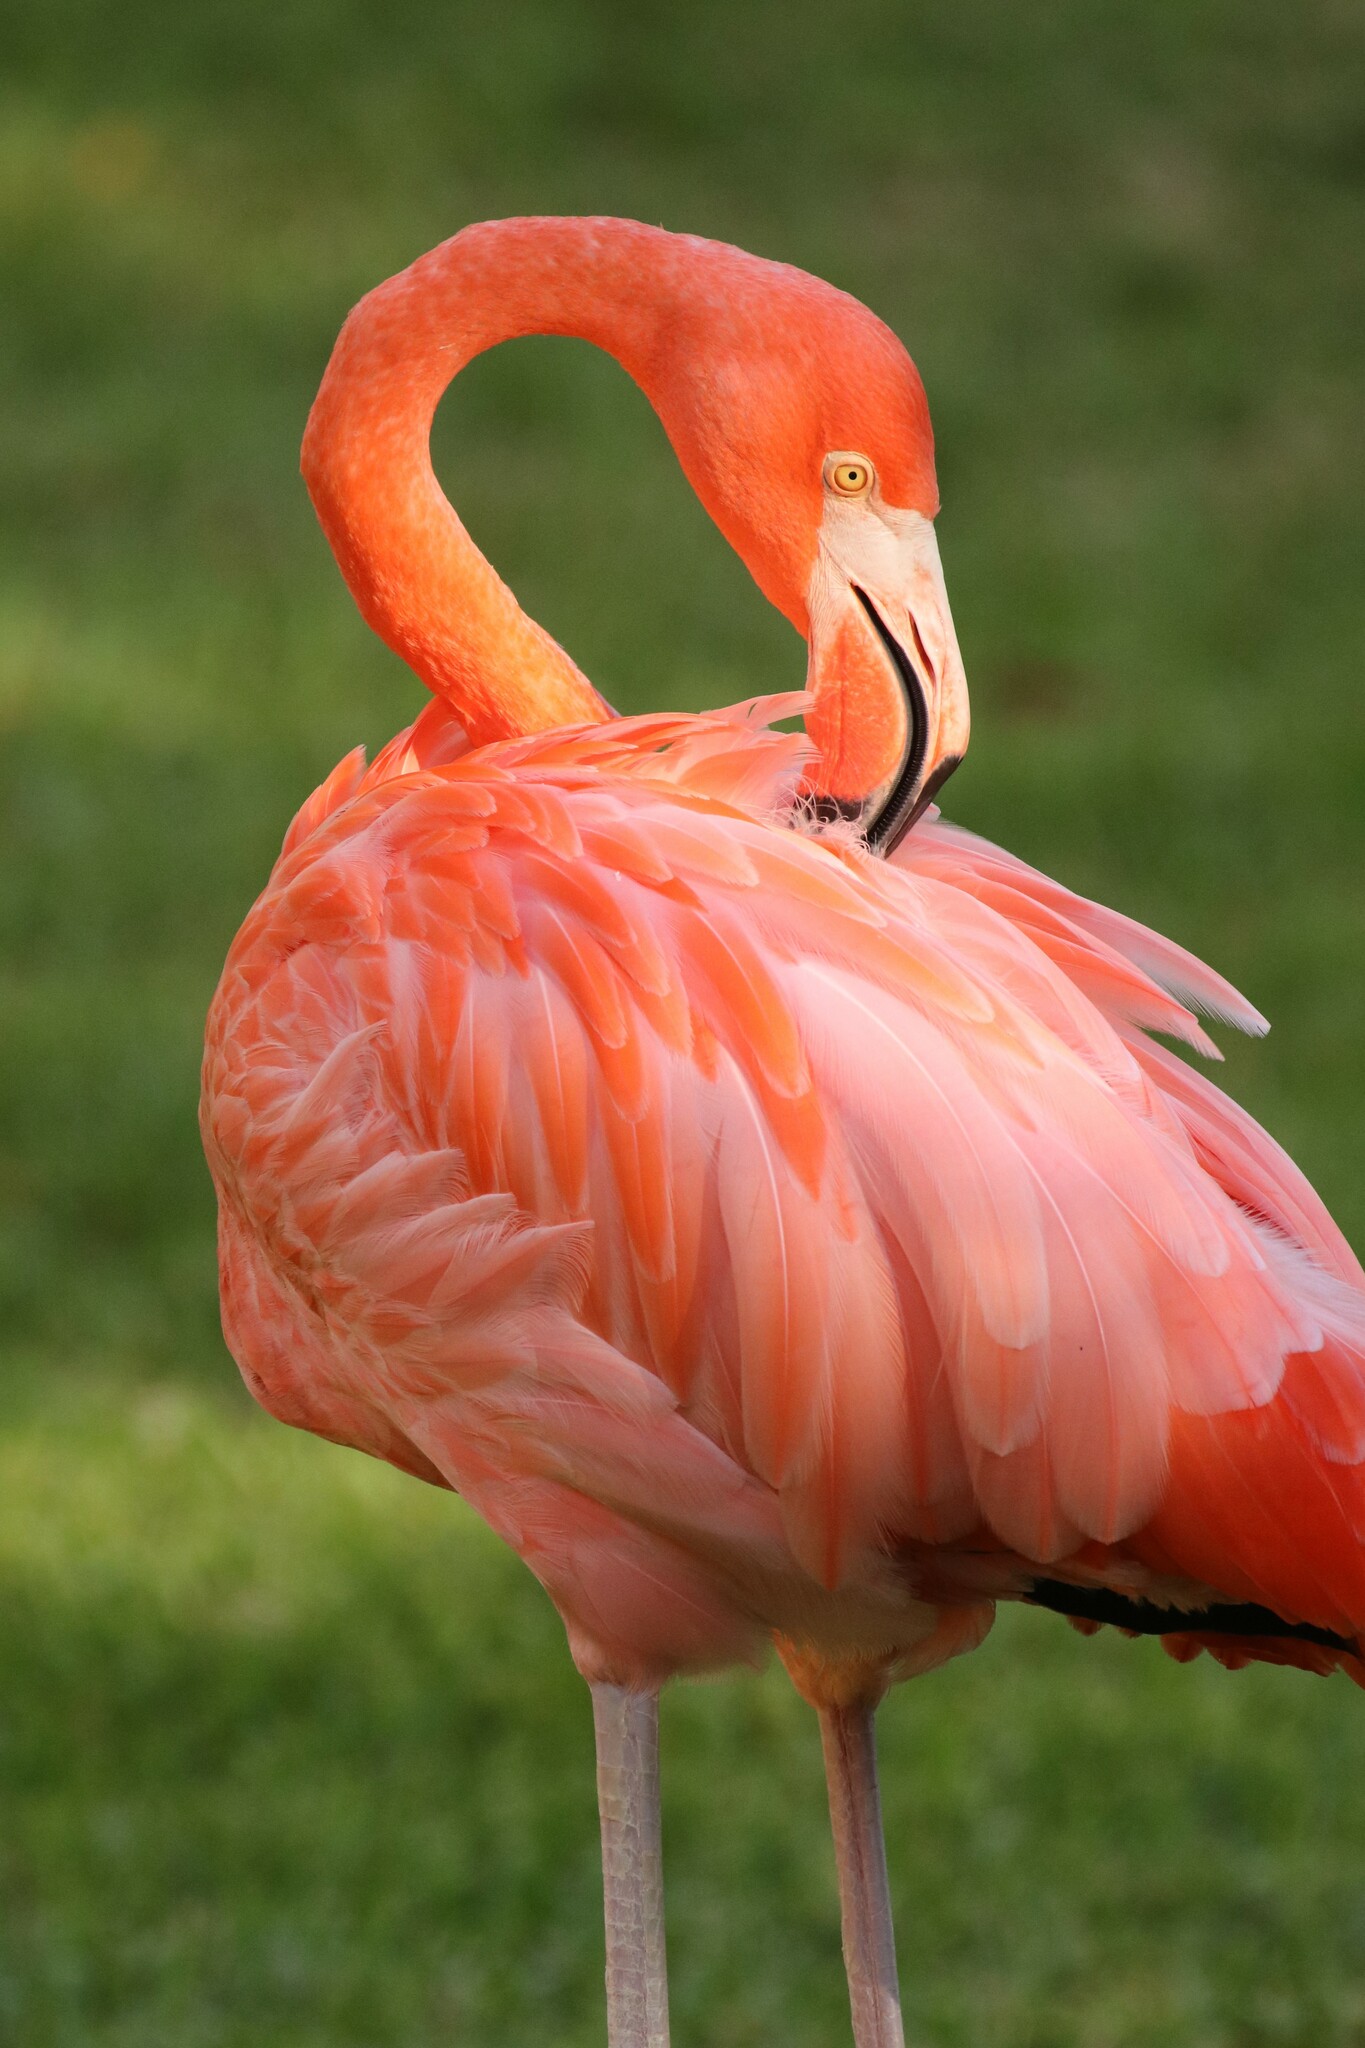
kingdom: Animalia
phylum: Chordata
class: Aves
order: Phoenicopteriformes
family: Phoenicopteridae
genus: Phoenicopterus
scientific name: Phoenicopterus ruber
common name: American flamingo
